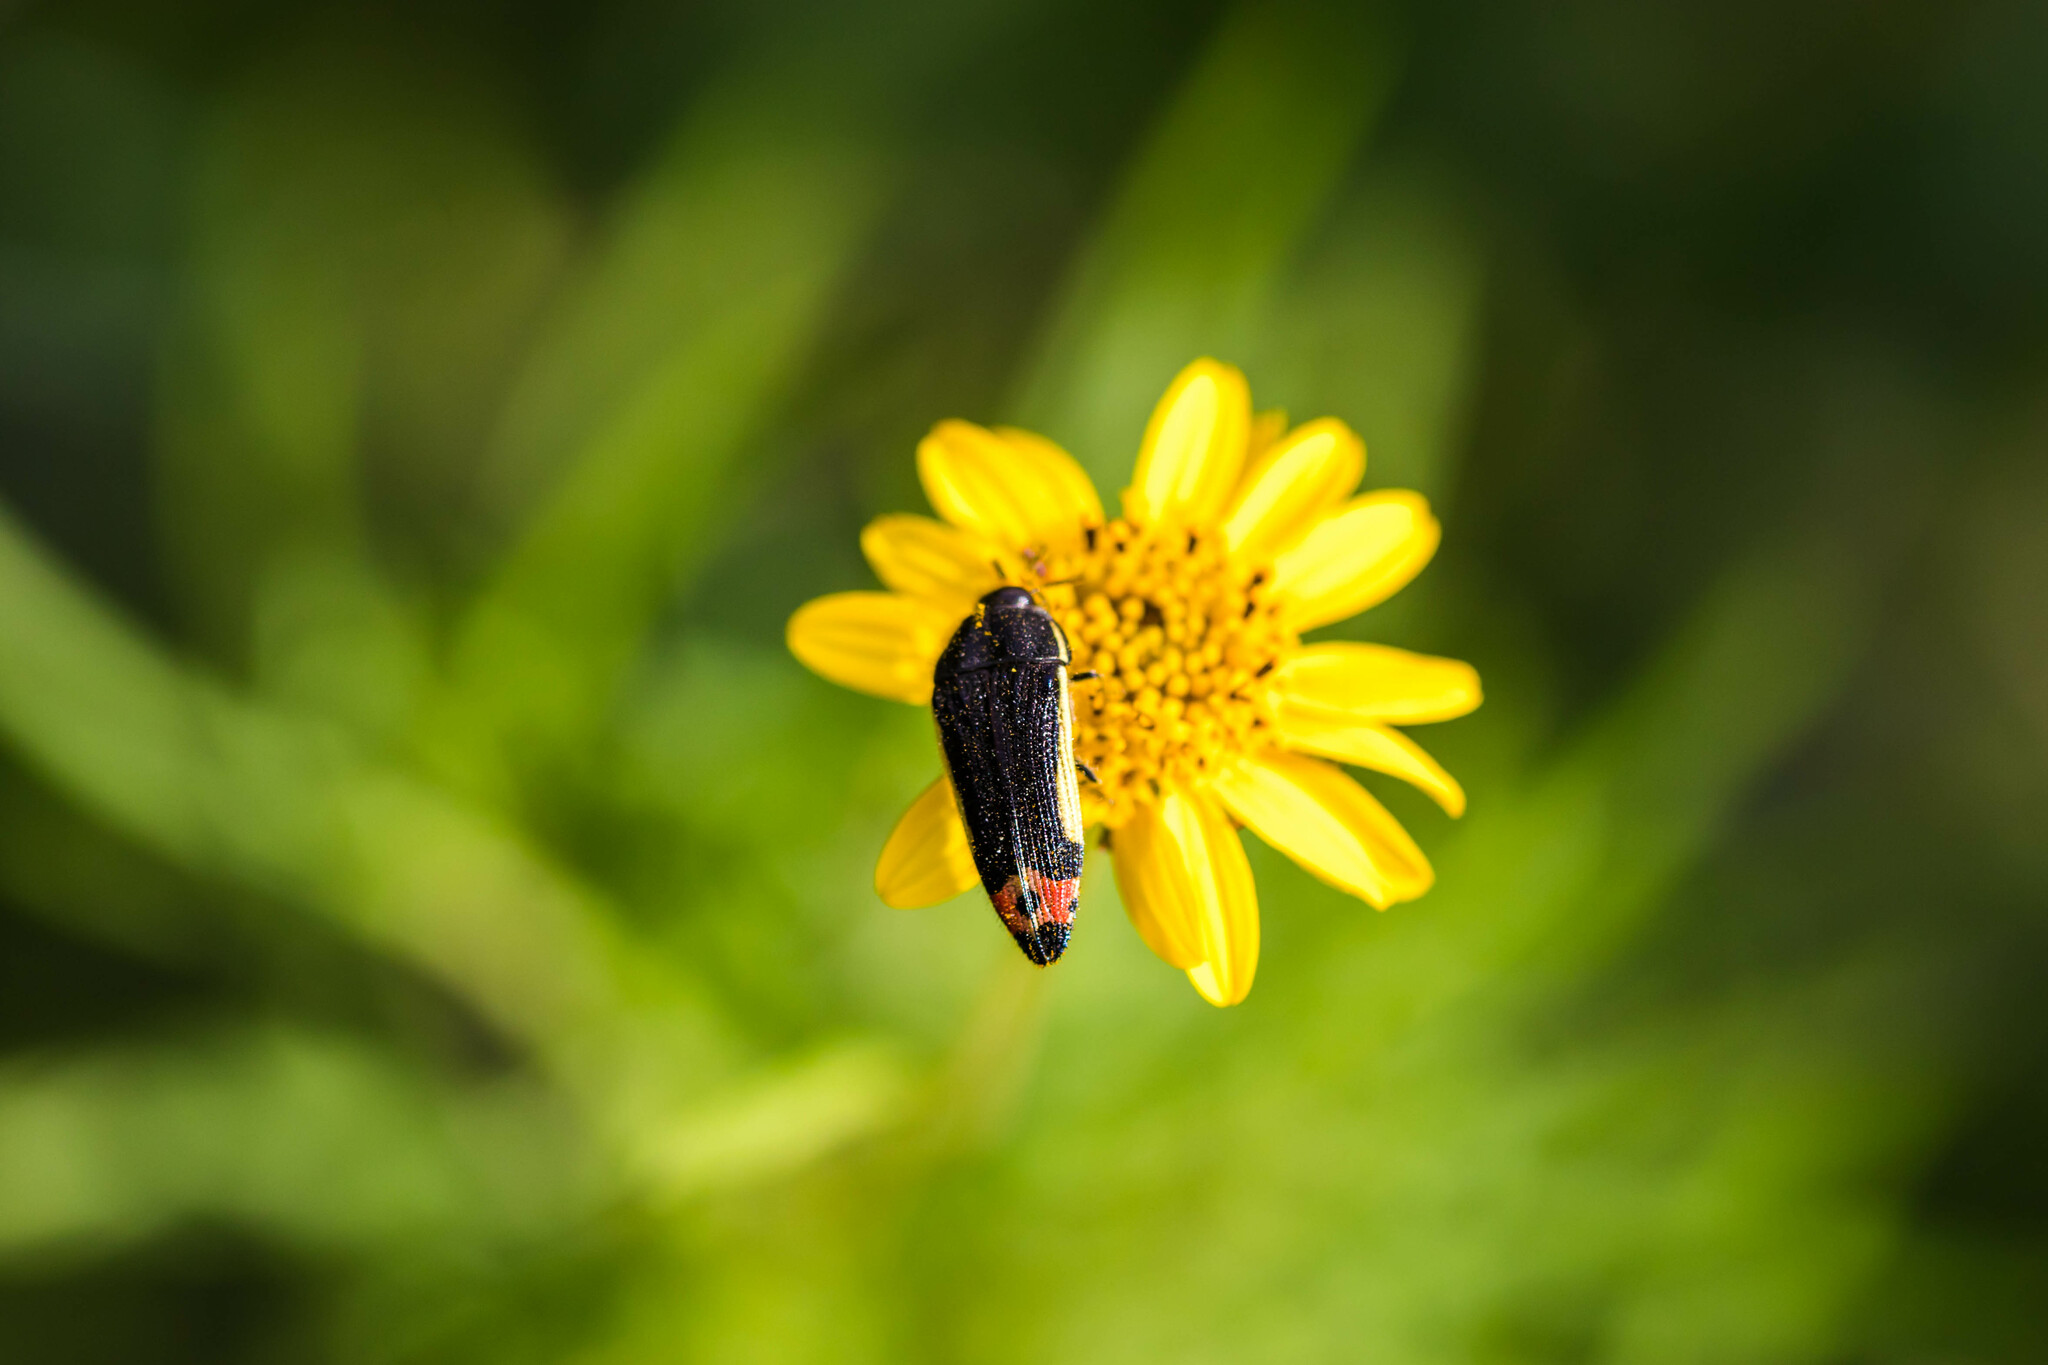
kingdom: Animalia
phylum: Arthropoda
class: Insecta
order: Coleoptera
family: Buprestidae
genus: Acmaeodera
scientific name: Acmaeodera flavomarginata
